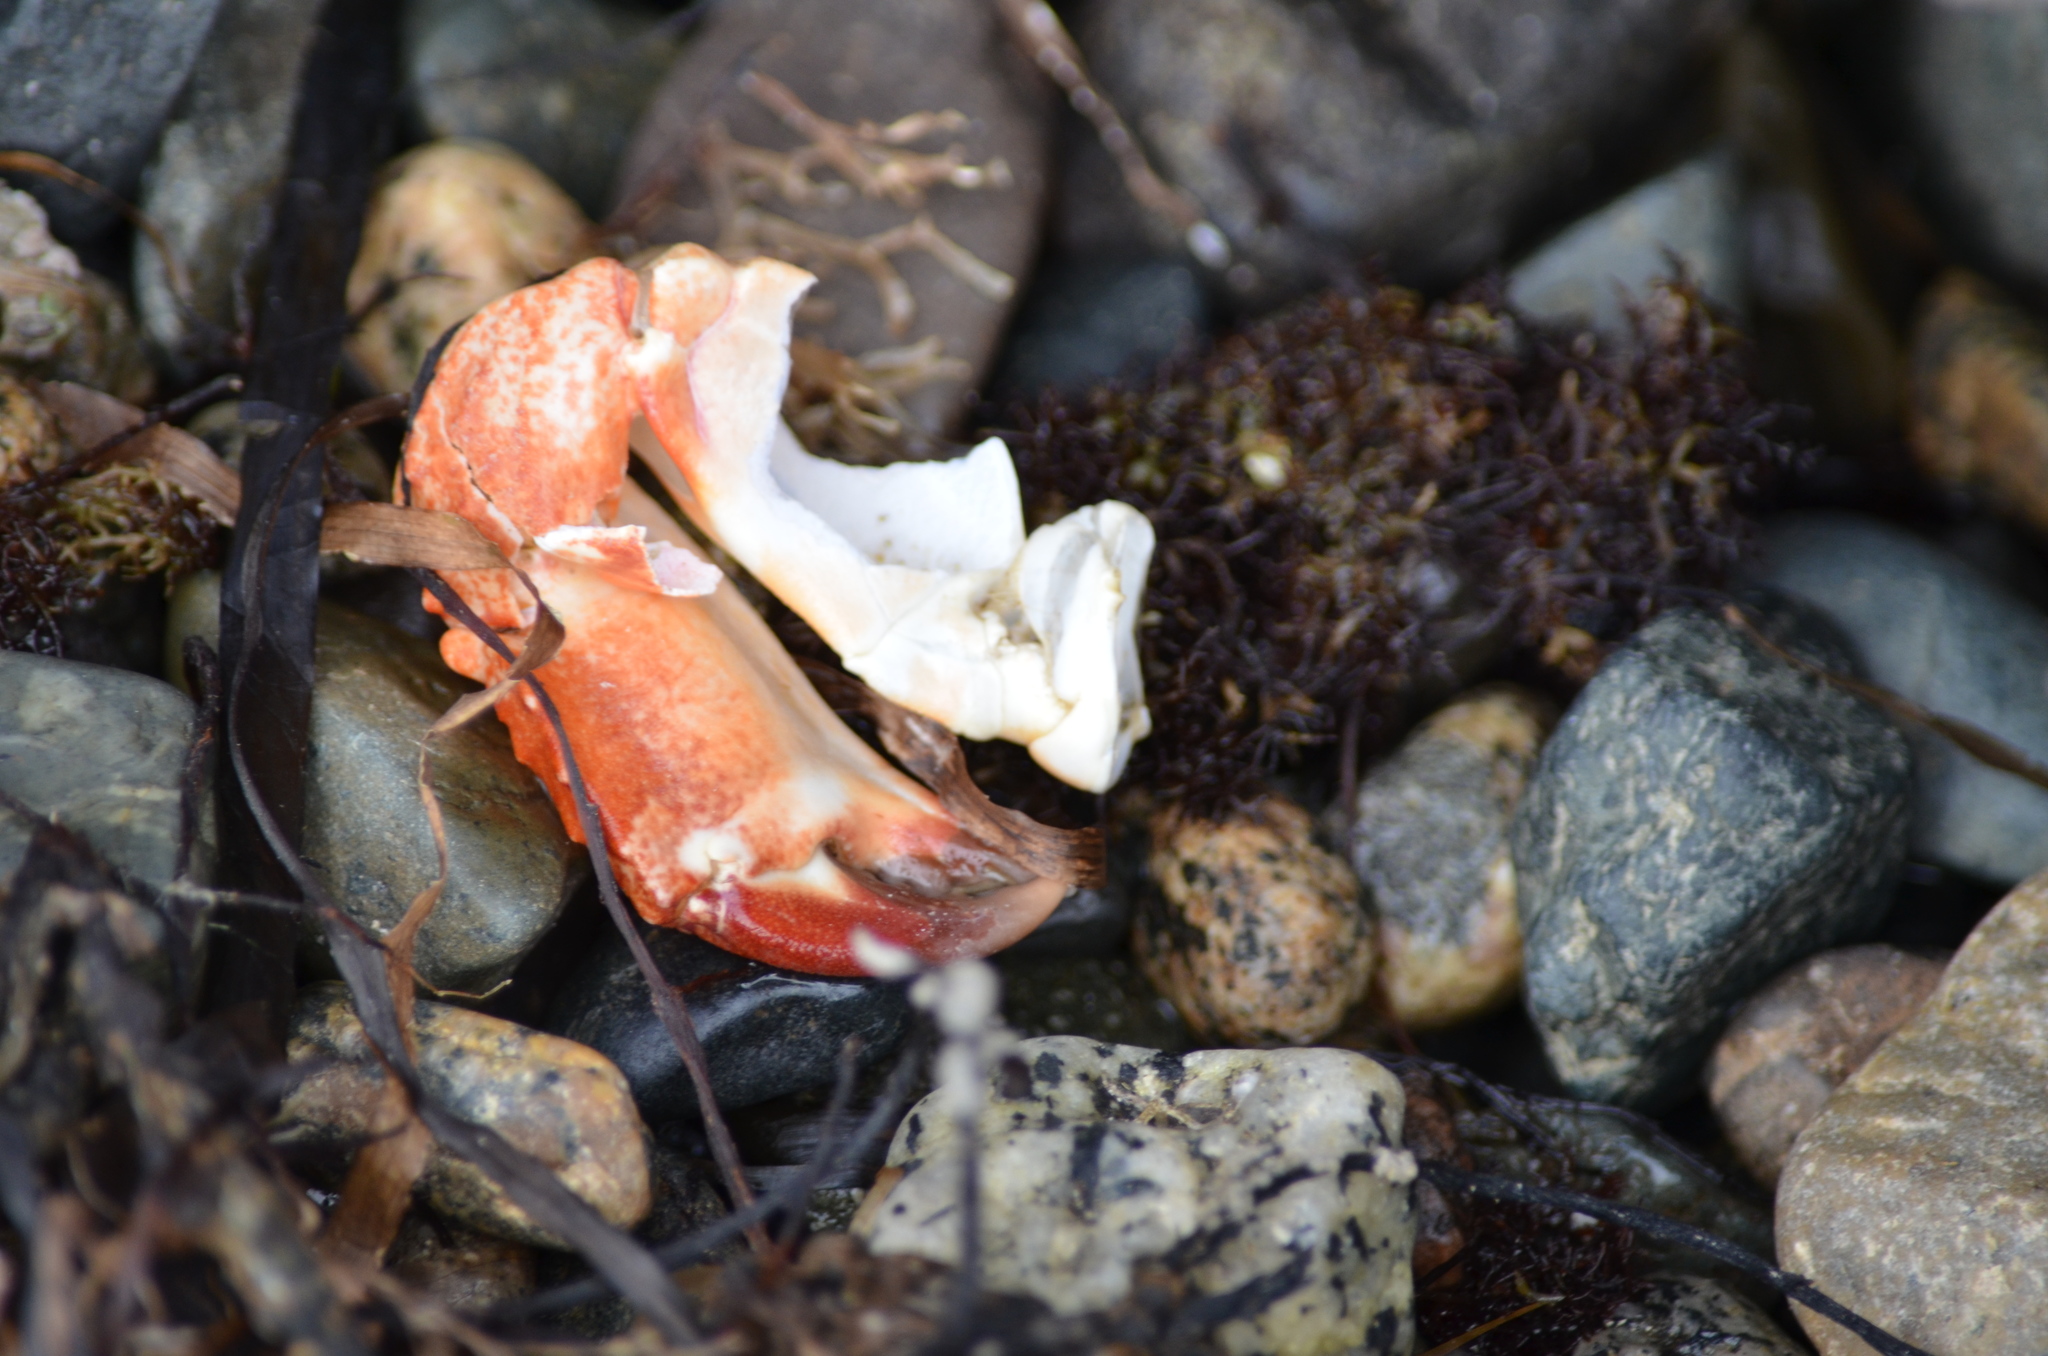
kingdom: Animalia
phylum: Arthropoda
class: Malacostraca
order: Decapoda
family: Cancridae
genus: Cancer
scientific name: Cancer productus
